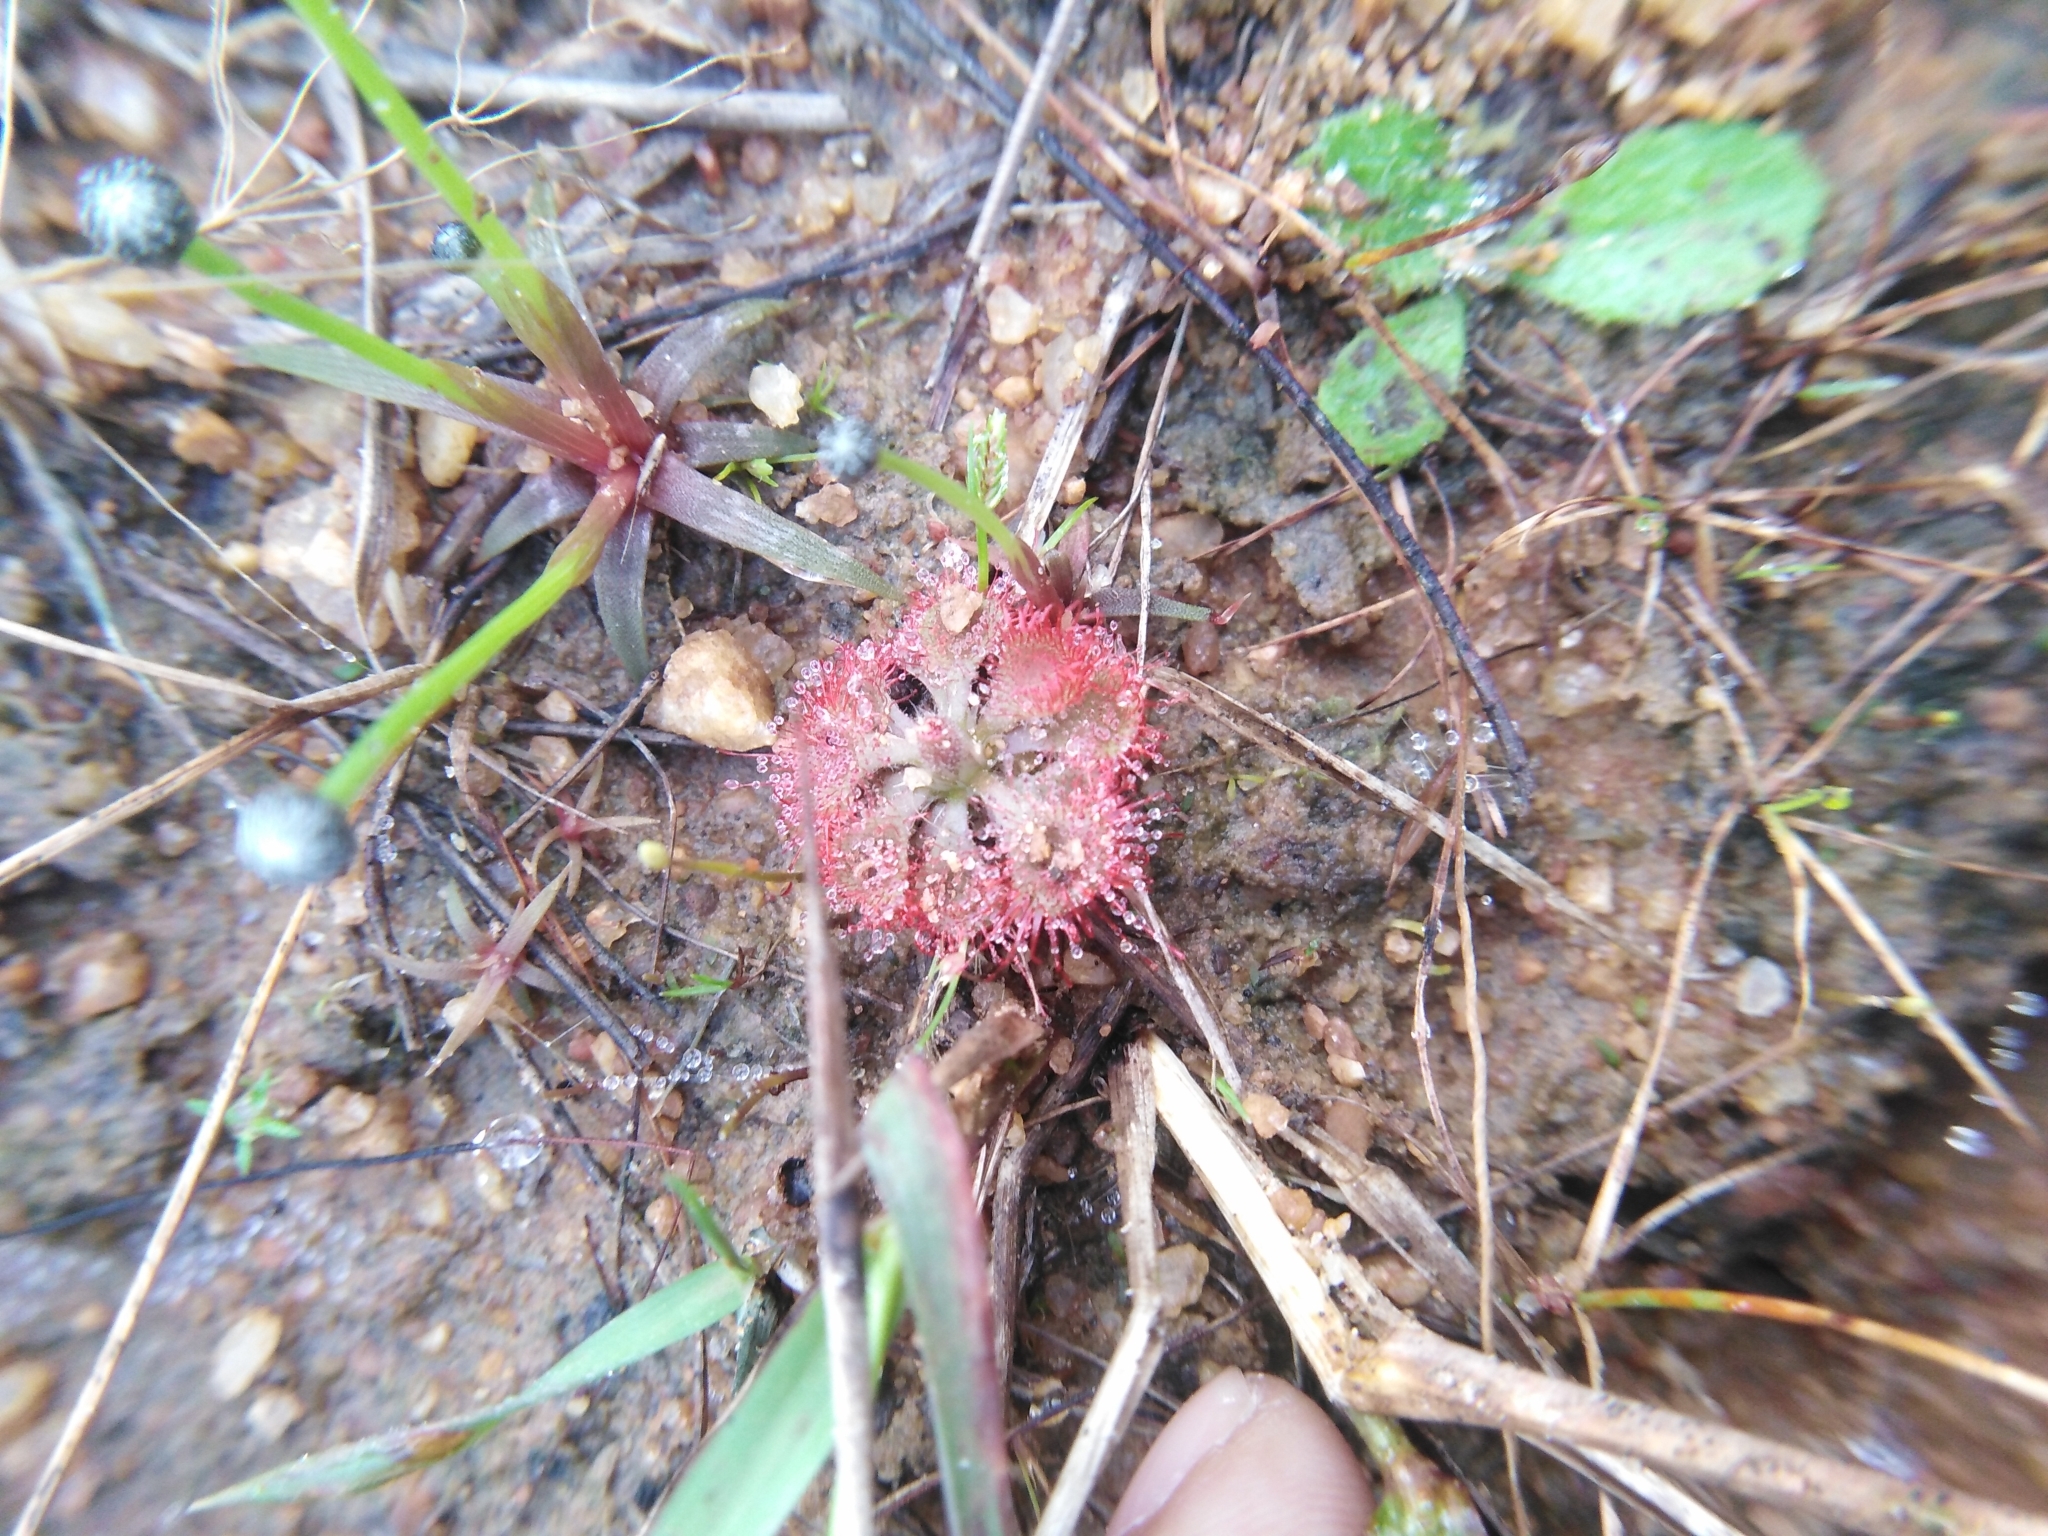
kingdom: Plantae
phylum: Tracheophyta
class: Magnoliopsida
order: Caryophyllales
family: Droseraceae
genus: Drosera
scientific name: Drosera spatulata
